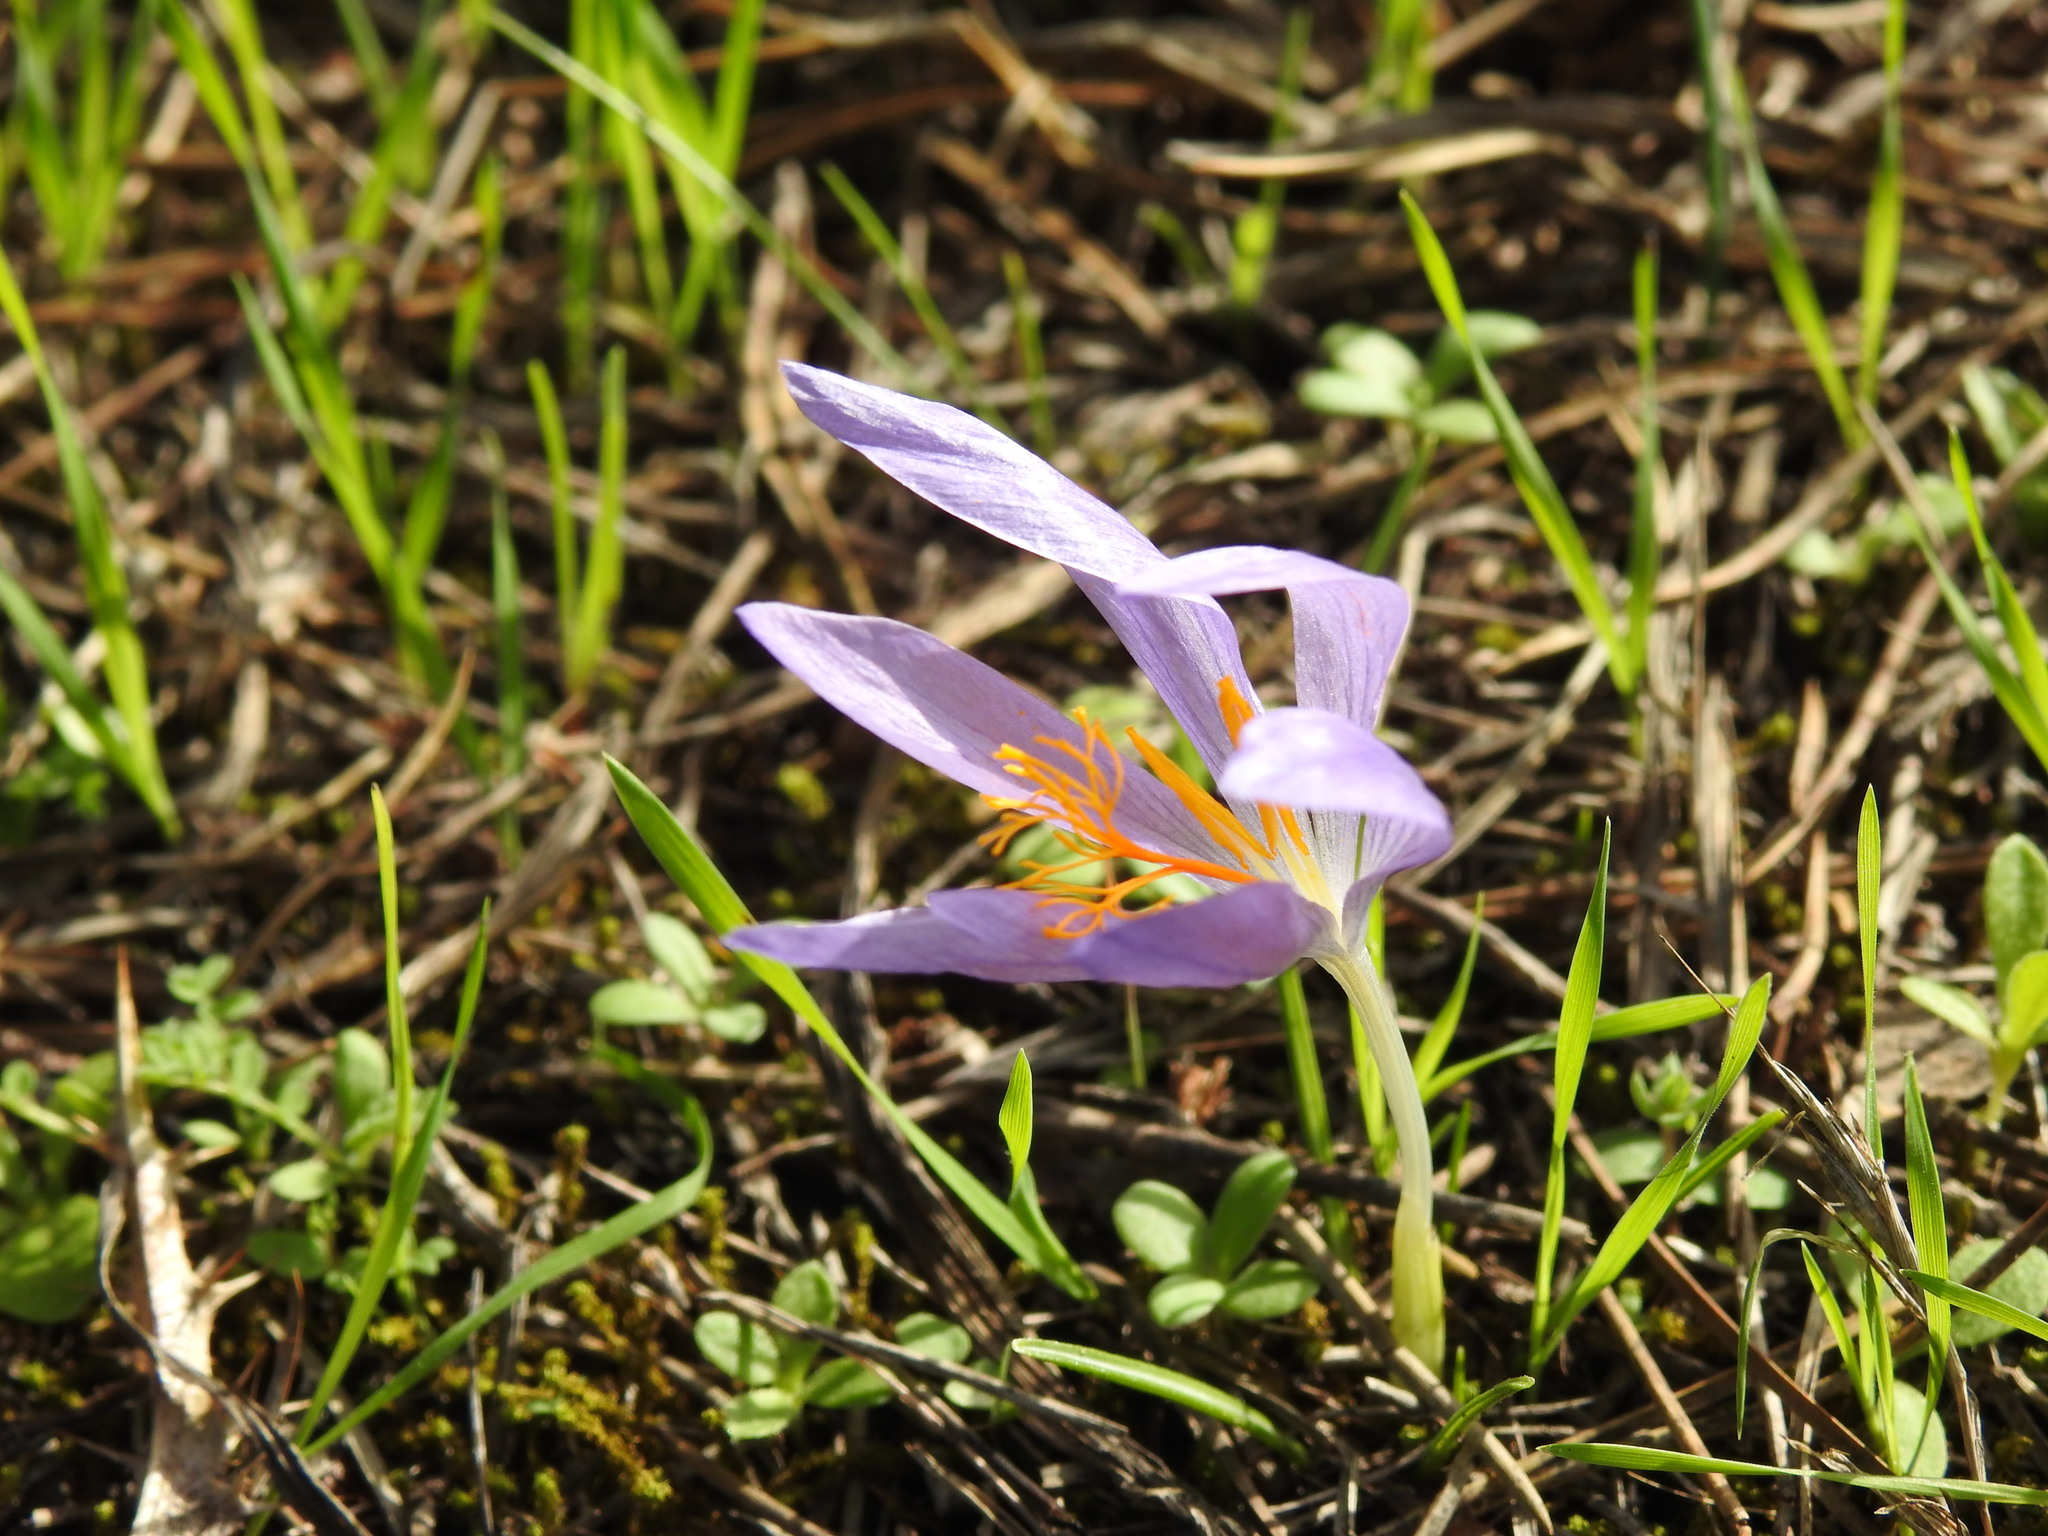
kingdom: Plantae
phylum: Tracheophyta
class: Liliopsida
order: Asparagales
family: Iridaceae
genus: Crocus
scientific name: Crocus serotinus
